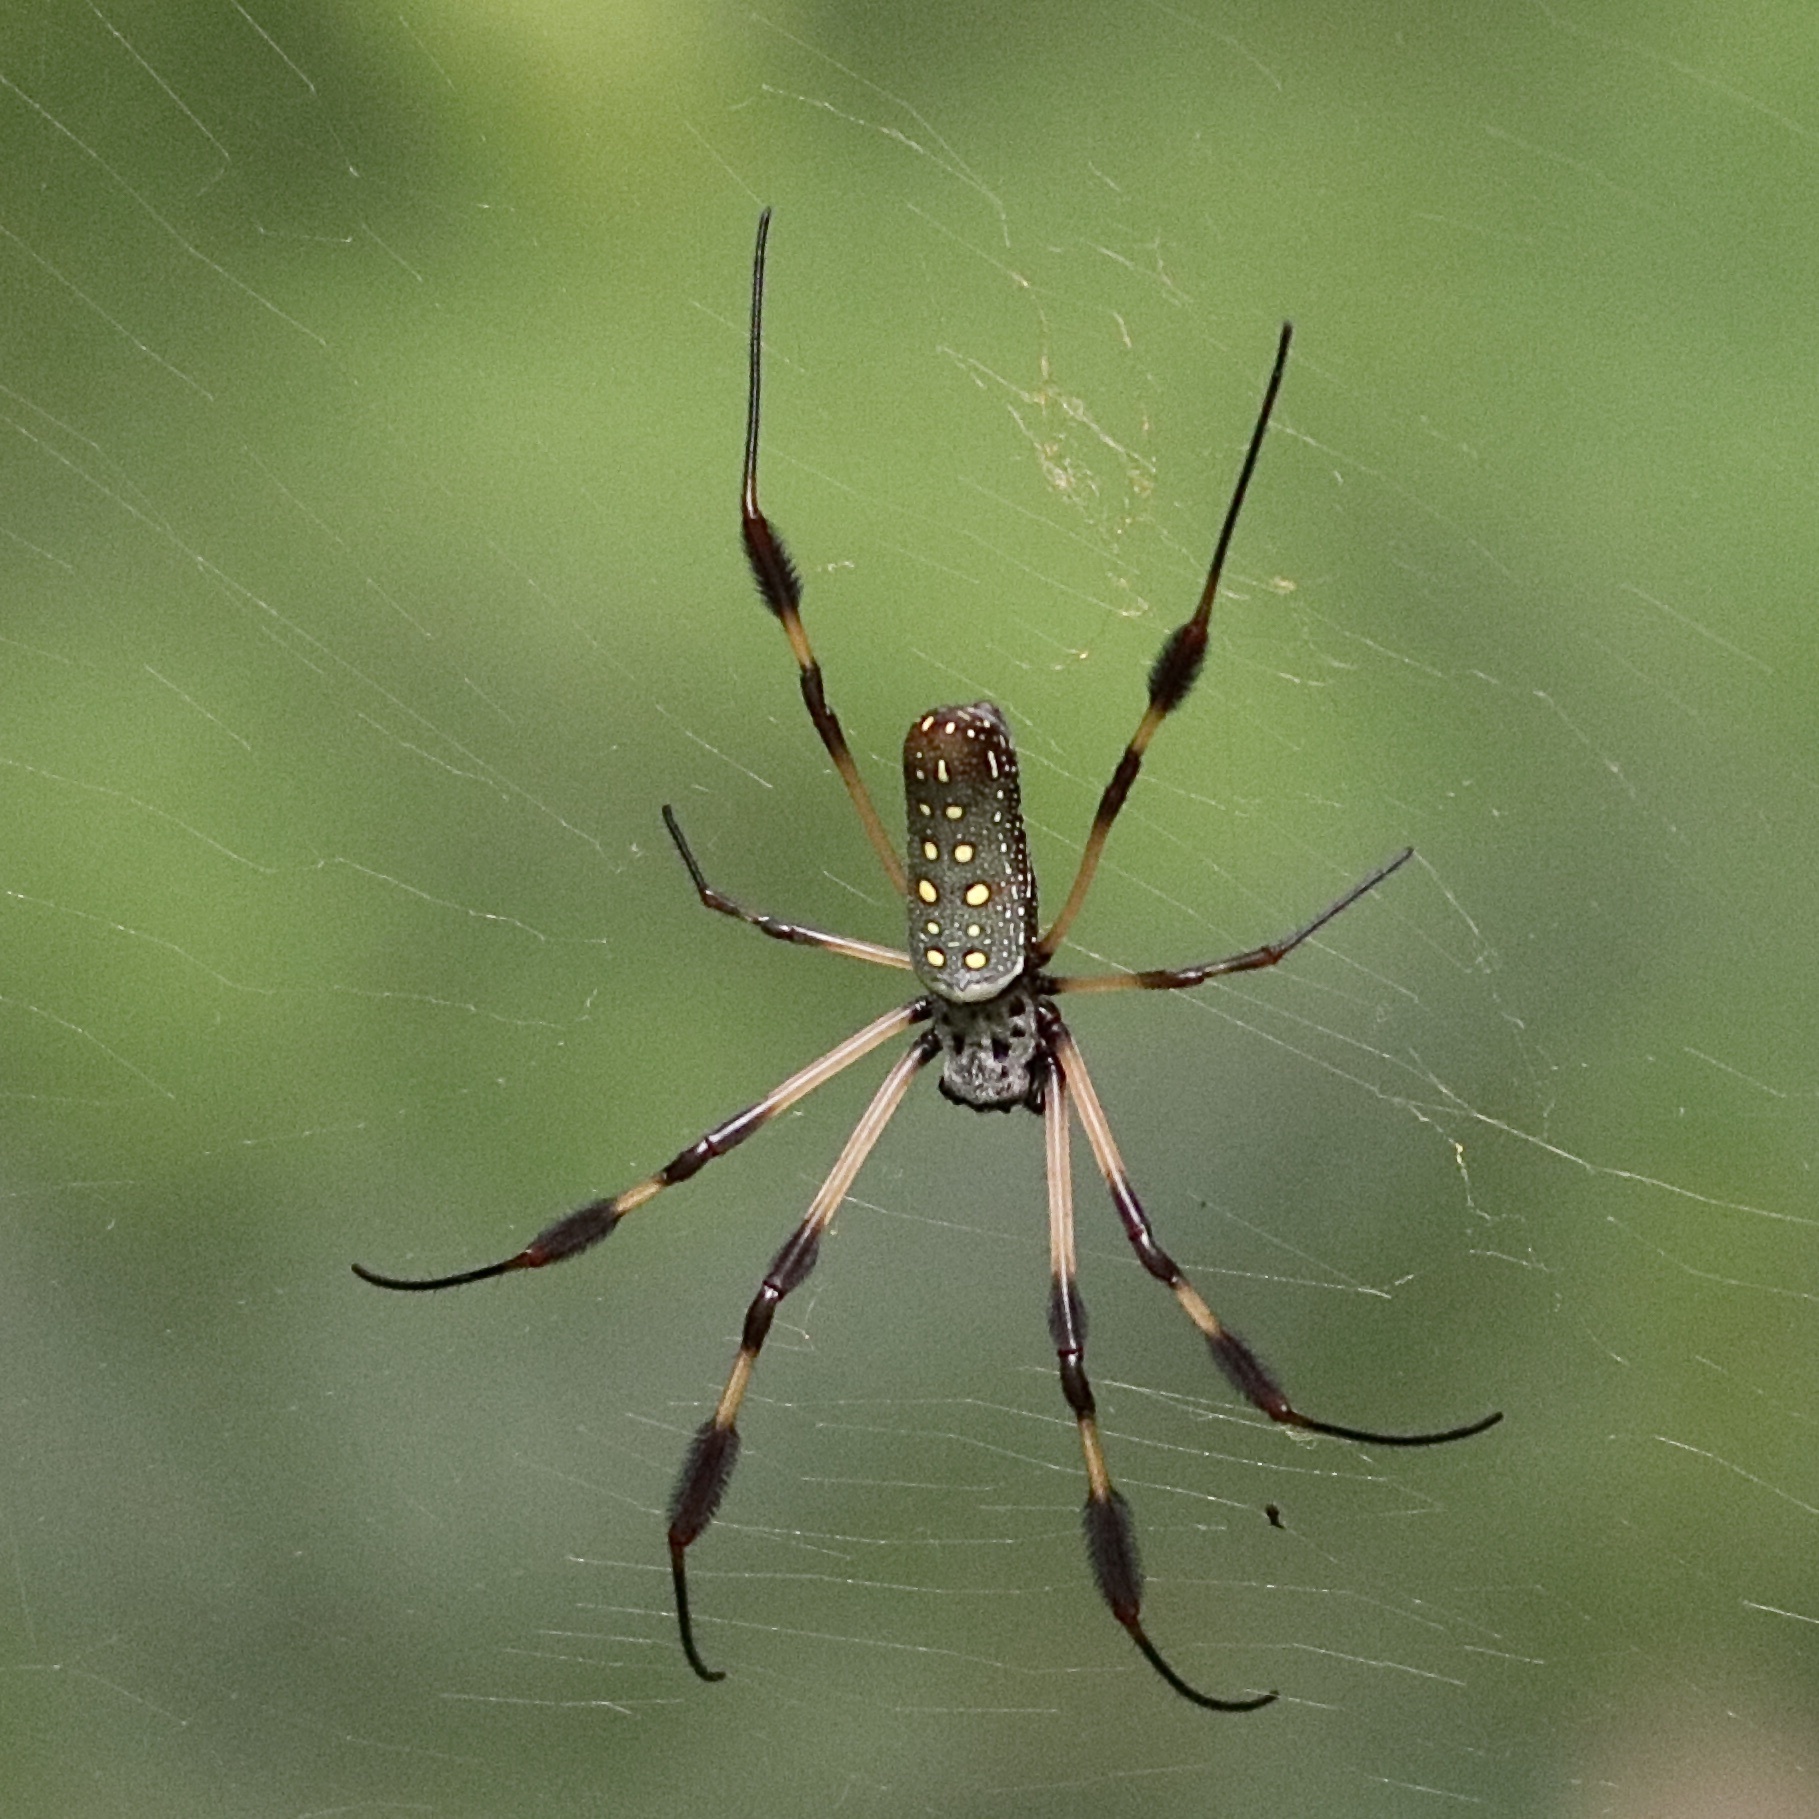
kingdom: Animalia
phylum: Arthropoda
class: Arachnida
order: Araneae
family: Araneidae
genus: Trichonephila
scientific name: Trichonephila clavipes
